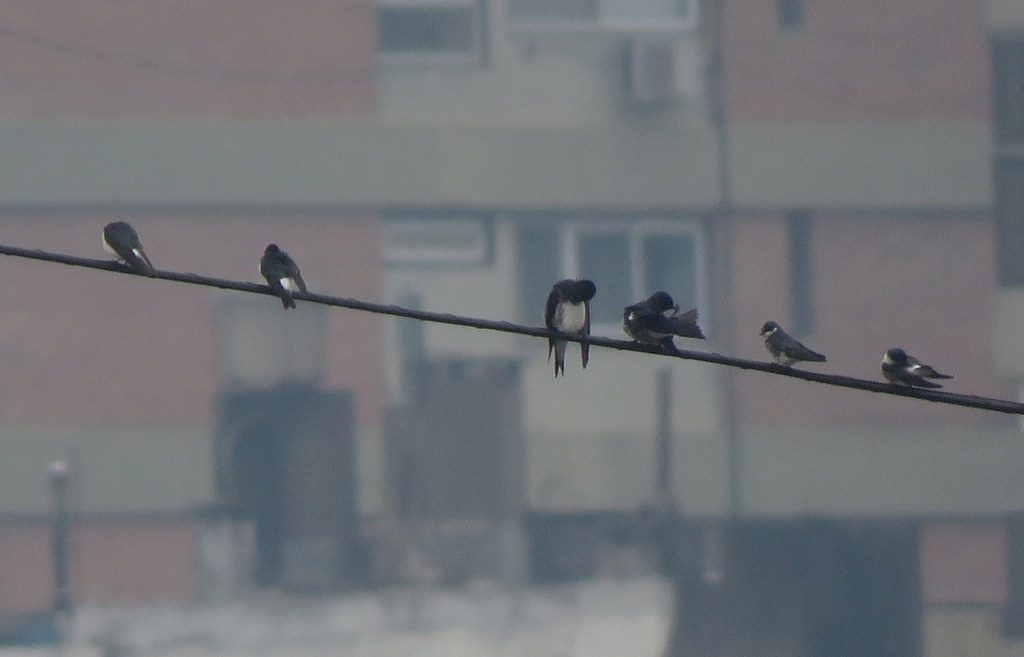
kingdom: Animalia
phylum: Chordata
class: Aves
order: Passeriformes
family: Hirundinidae
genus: Tachycineta
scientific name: Tachycineta leucorrhoa
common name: White-rumped swallow
